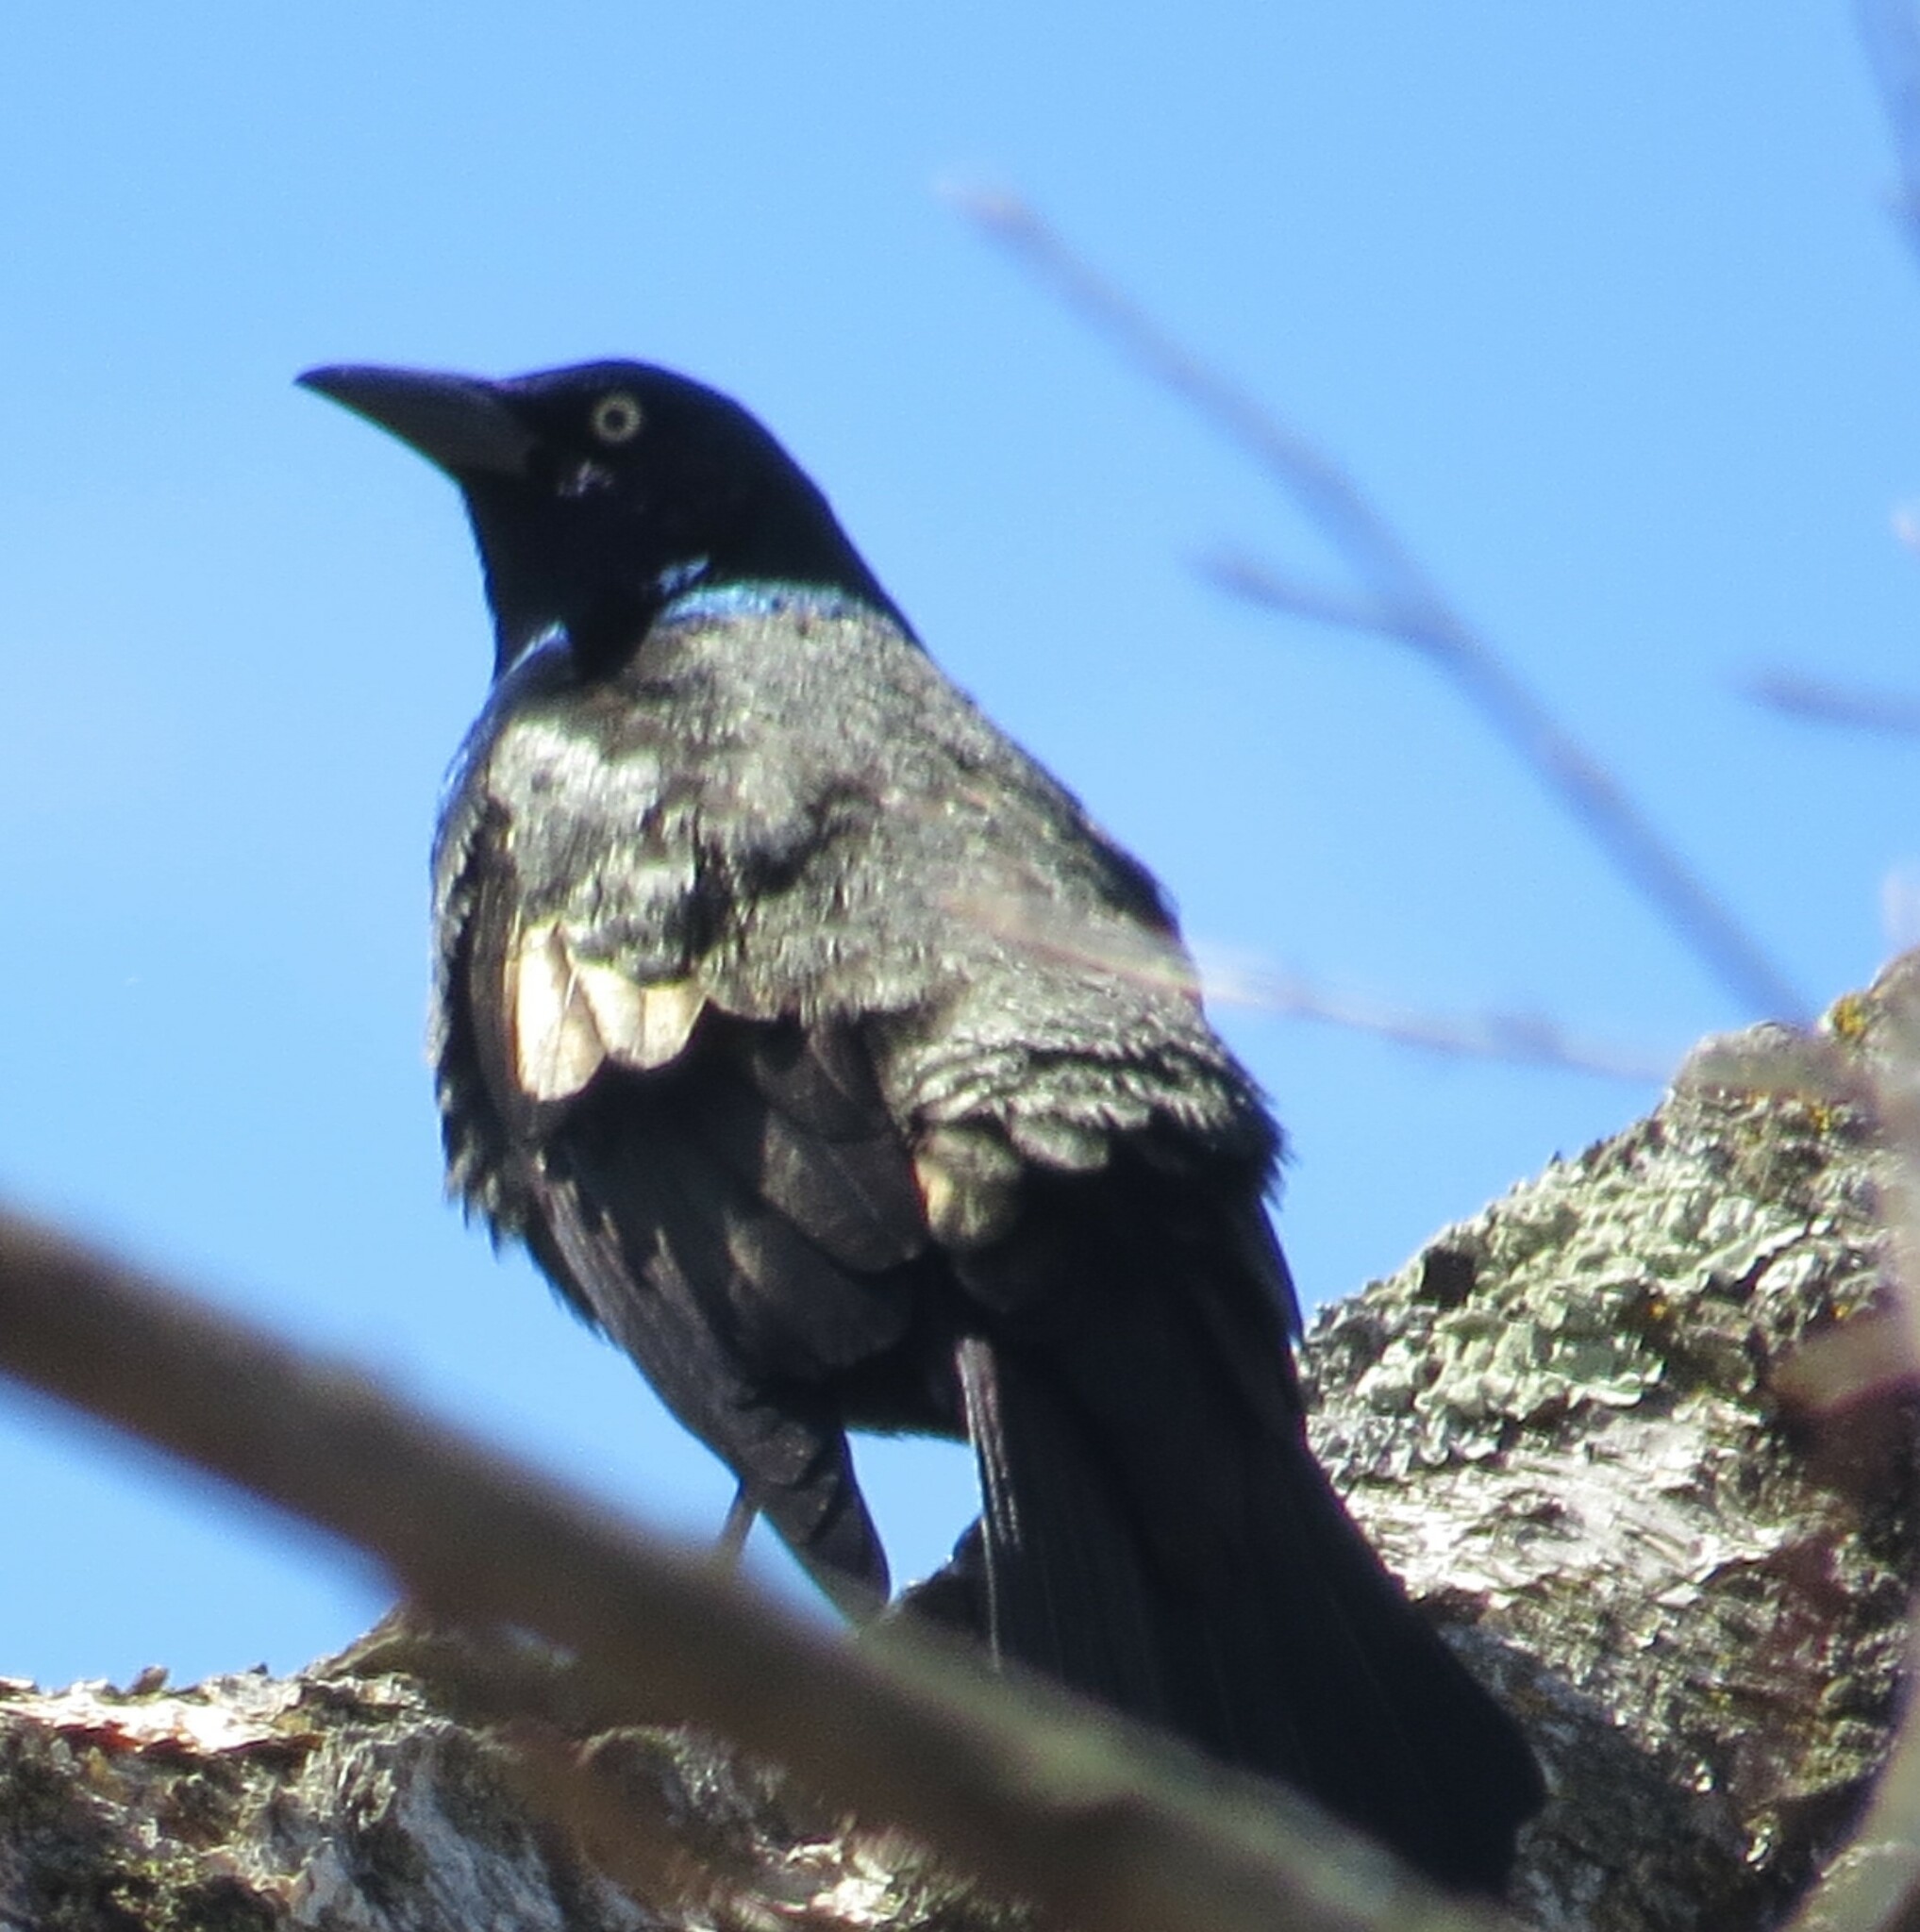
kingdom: Animalia
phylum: Chordata
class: Aves
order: Passeriformes
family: Icteridae
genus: Quiscalus
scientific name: Quiscalus quiscula
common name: Common grackle
